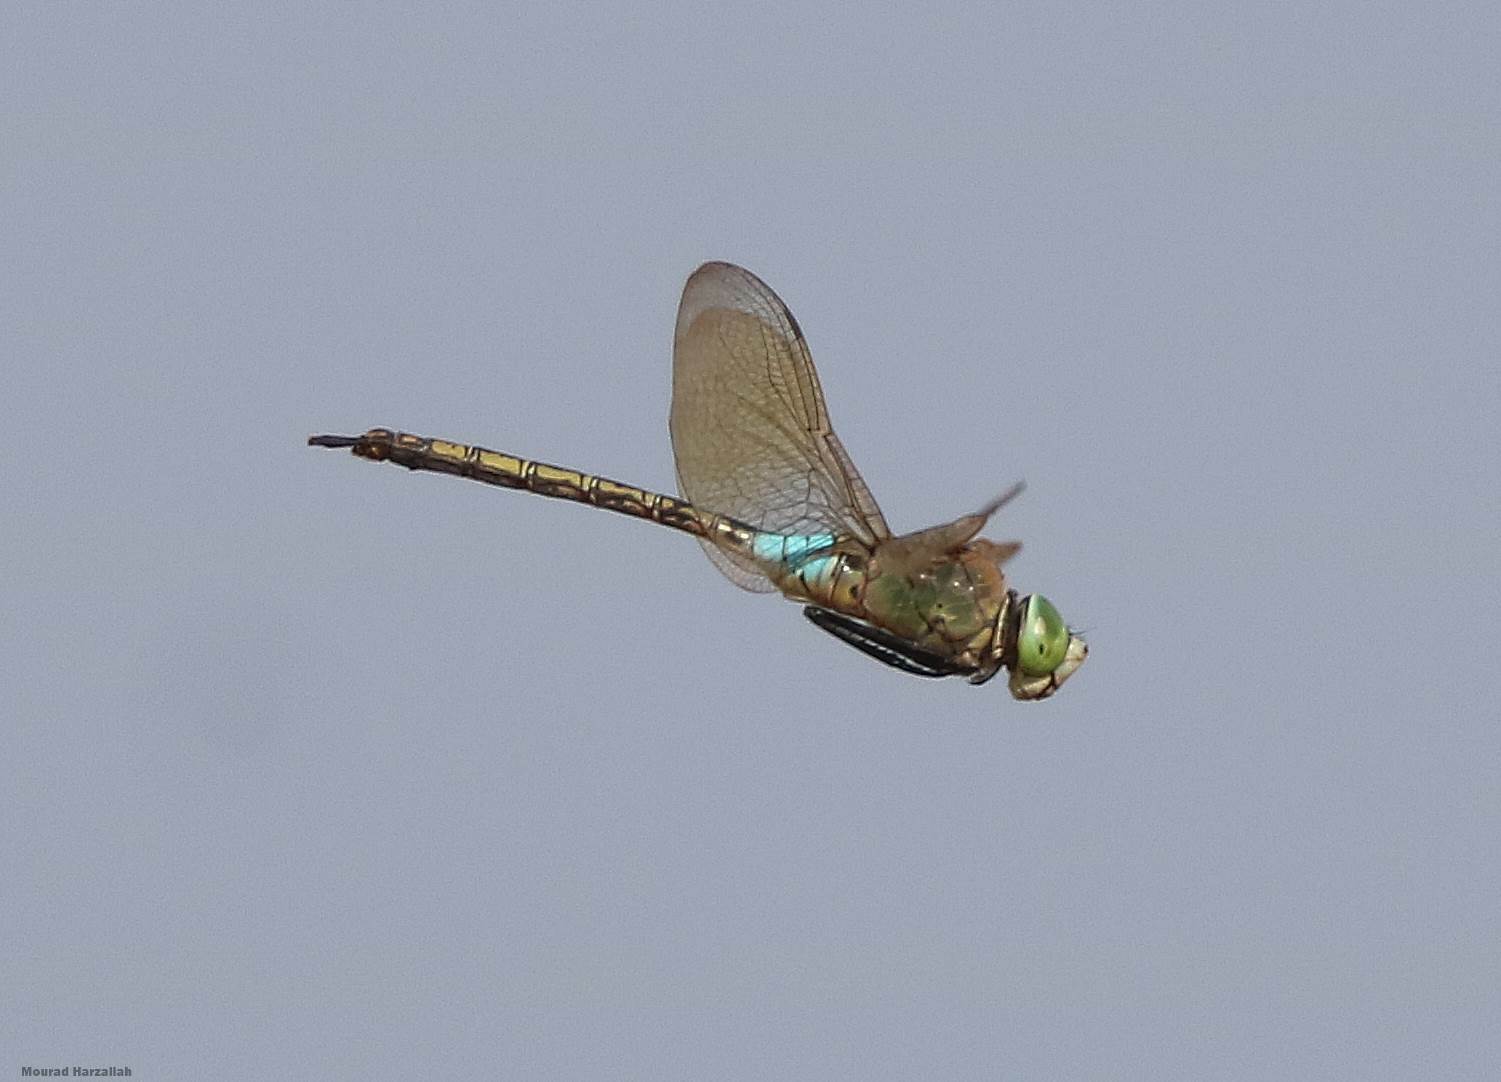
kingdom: Animalia
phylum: Arthropoda
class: Insecta
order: Odonata
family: Aeshnidae
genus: Anax
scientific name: Anax parthenope
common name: Lesser emperor
